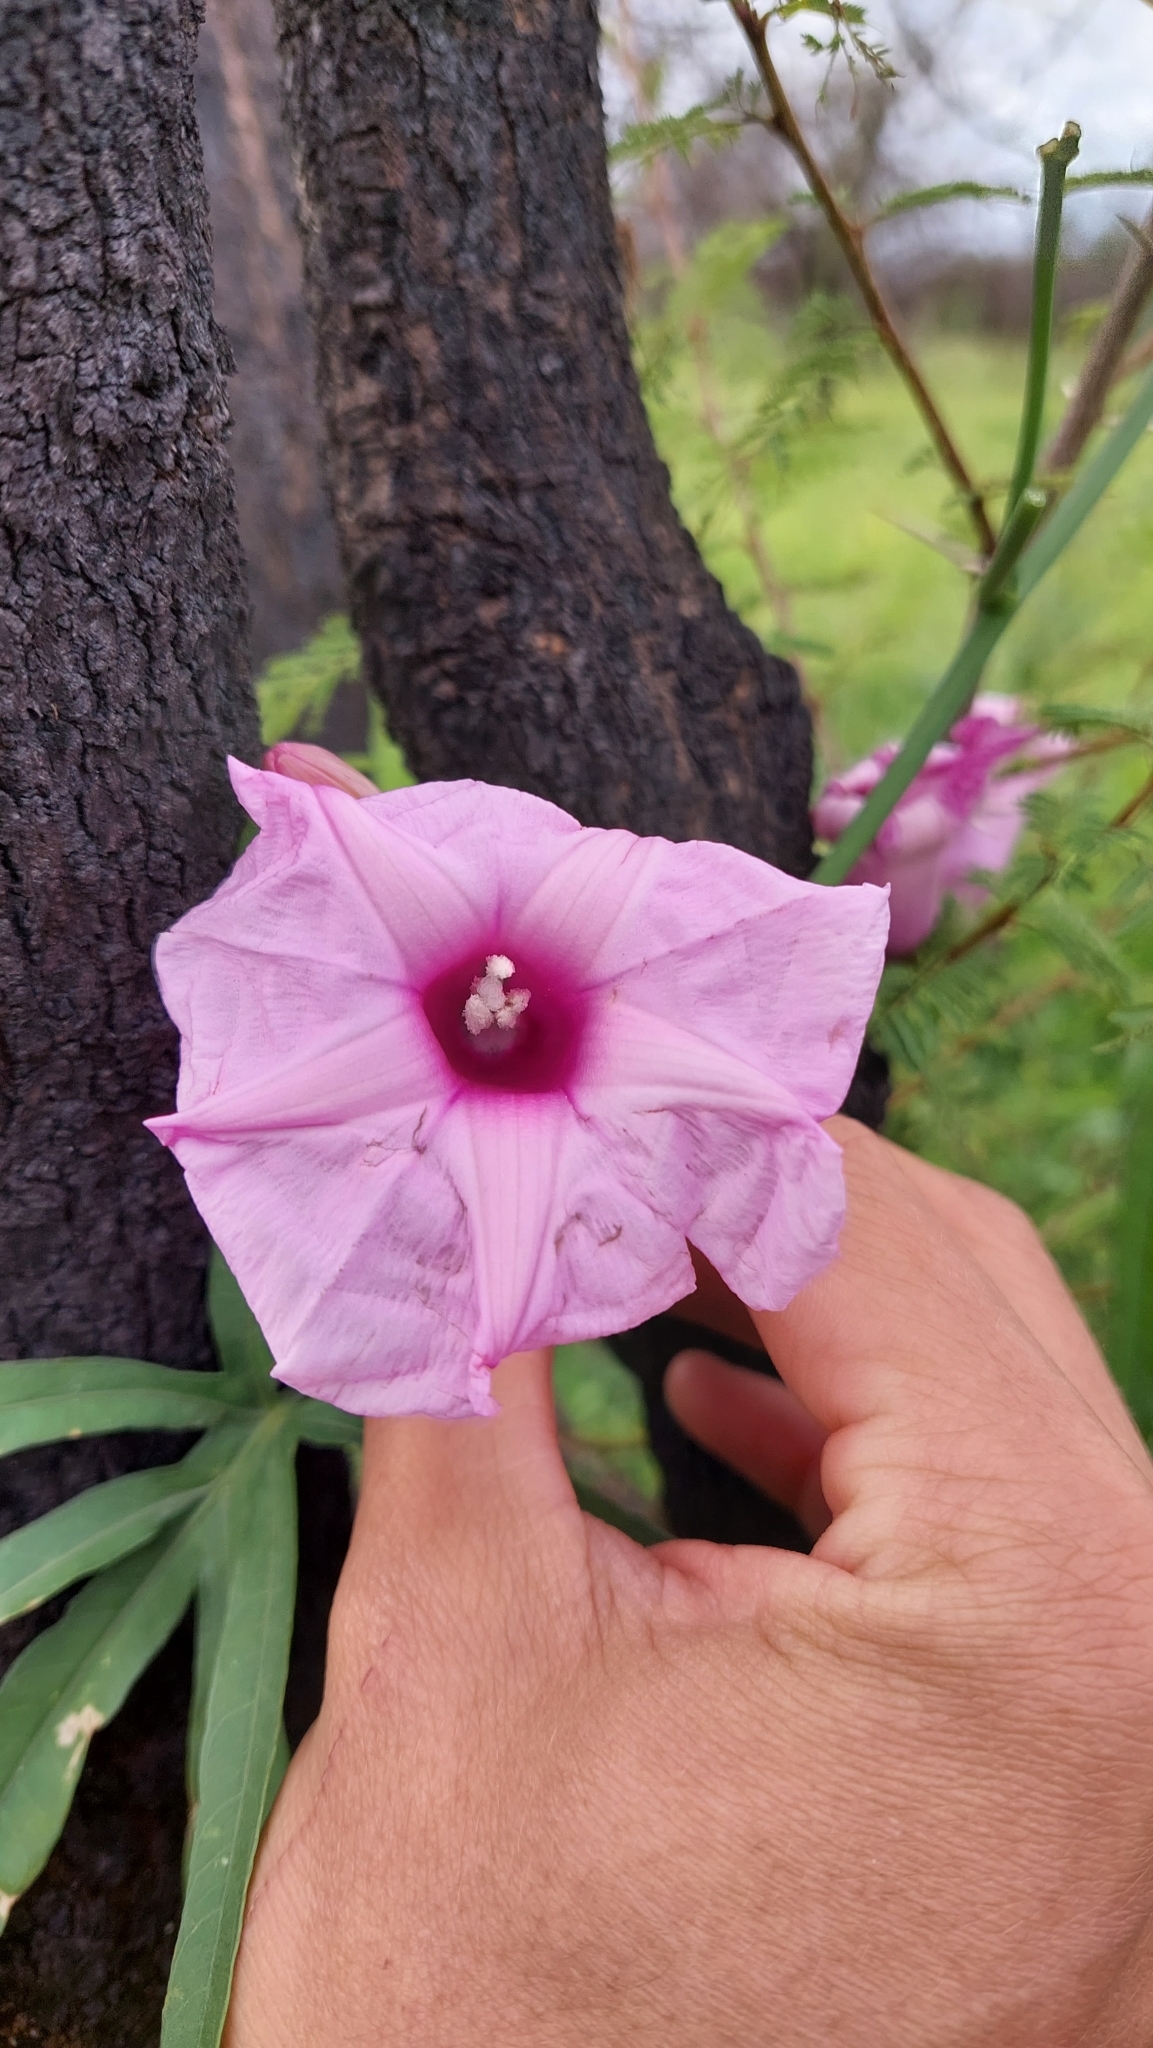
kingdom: Plantae
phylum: Tracheophyta
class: Magnoliopsida
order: Solanales
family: Convolvulaceae
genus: Ipomoea
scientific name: Ipomoea platensis
